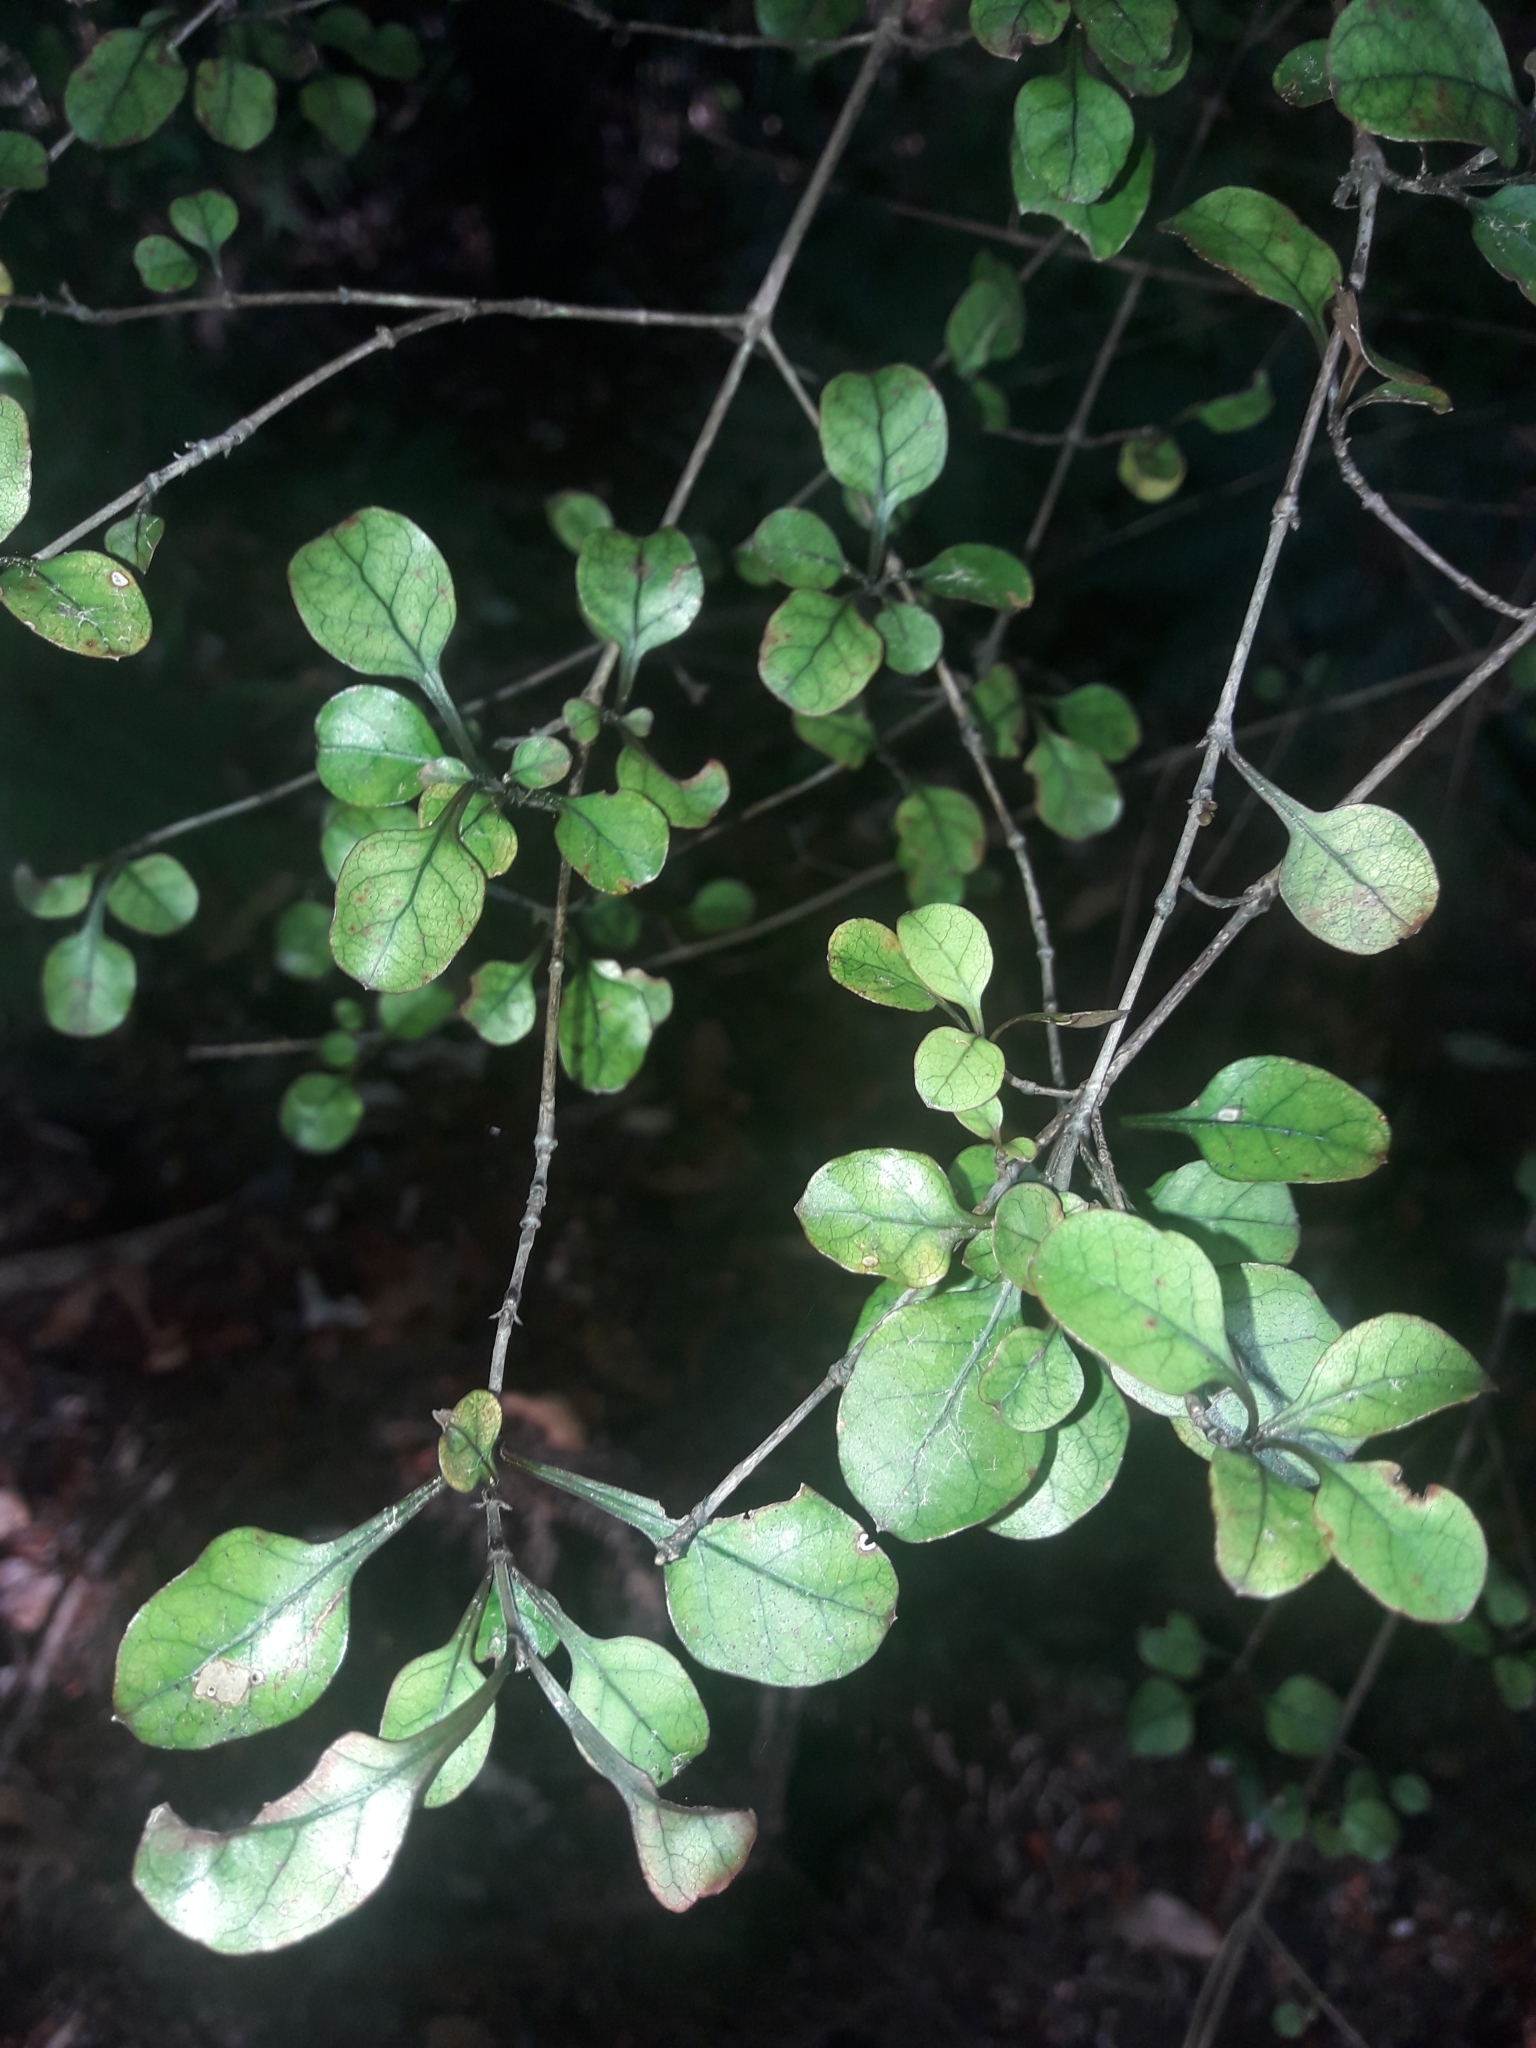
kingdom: Plantae
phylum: Tracheophyta
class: Magnoliopsida
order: Gentianales
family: Rubiaceae
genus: Coprosma
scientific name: Coprosma arborea
